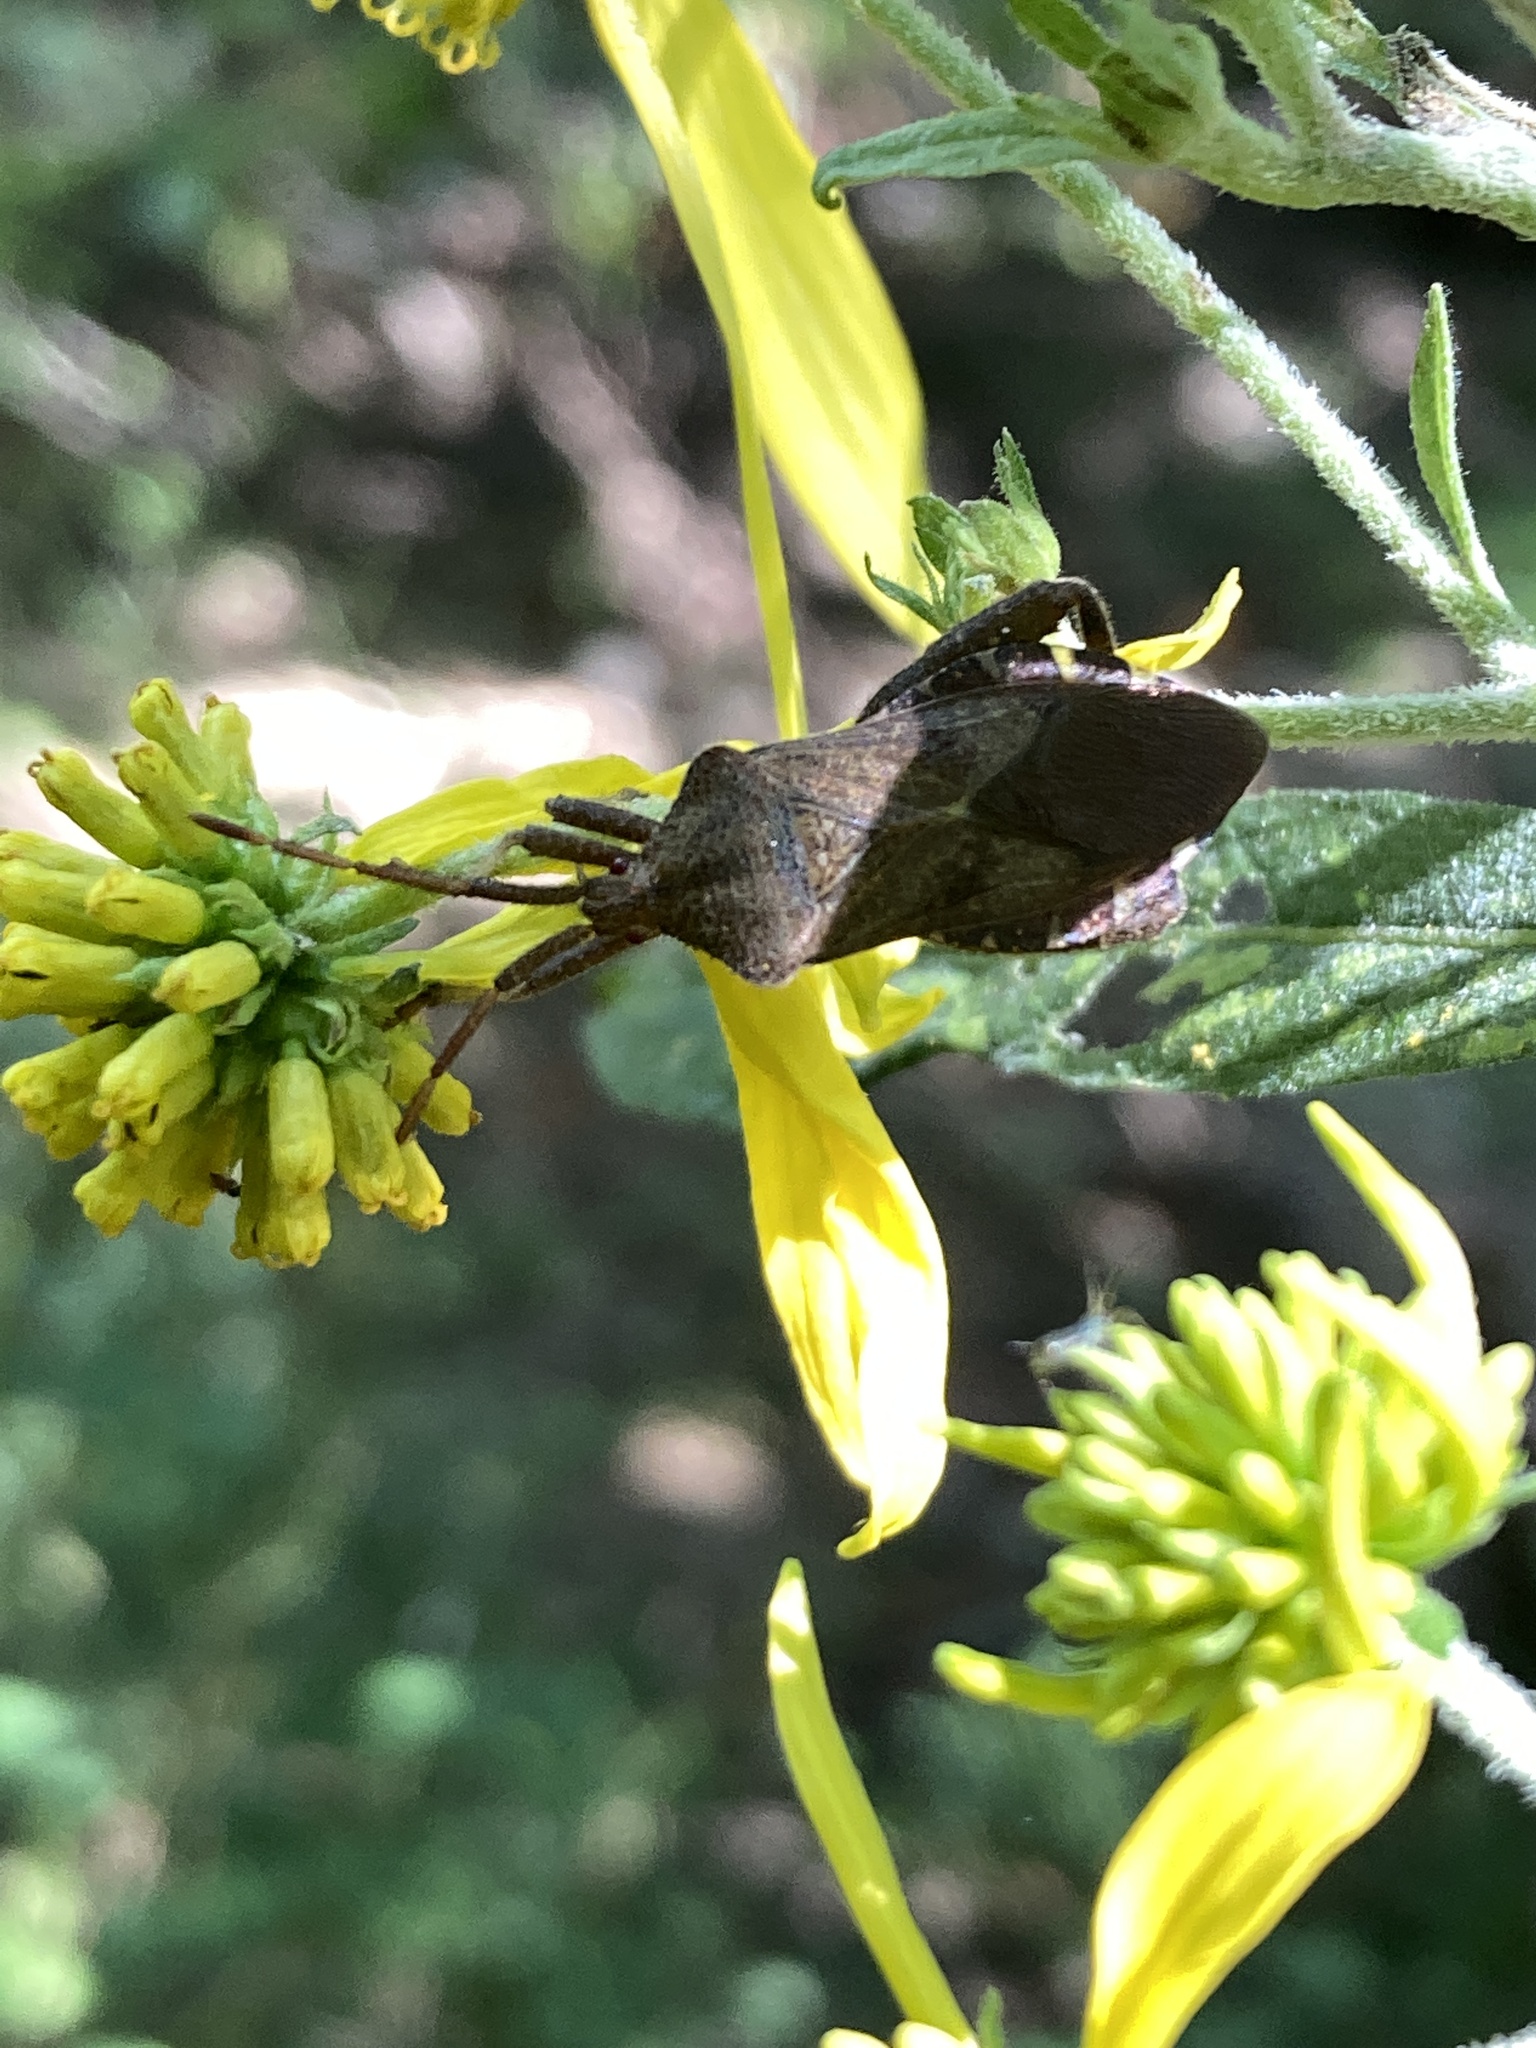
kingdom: Animalia
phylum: Arthropoda
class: Insecta
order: Hemiptera
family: Coreidae
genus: Piezogaster
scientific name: Piezogaster calcarator
